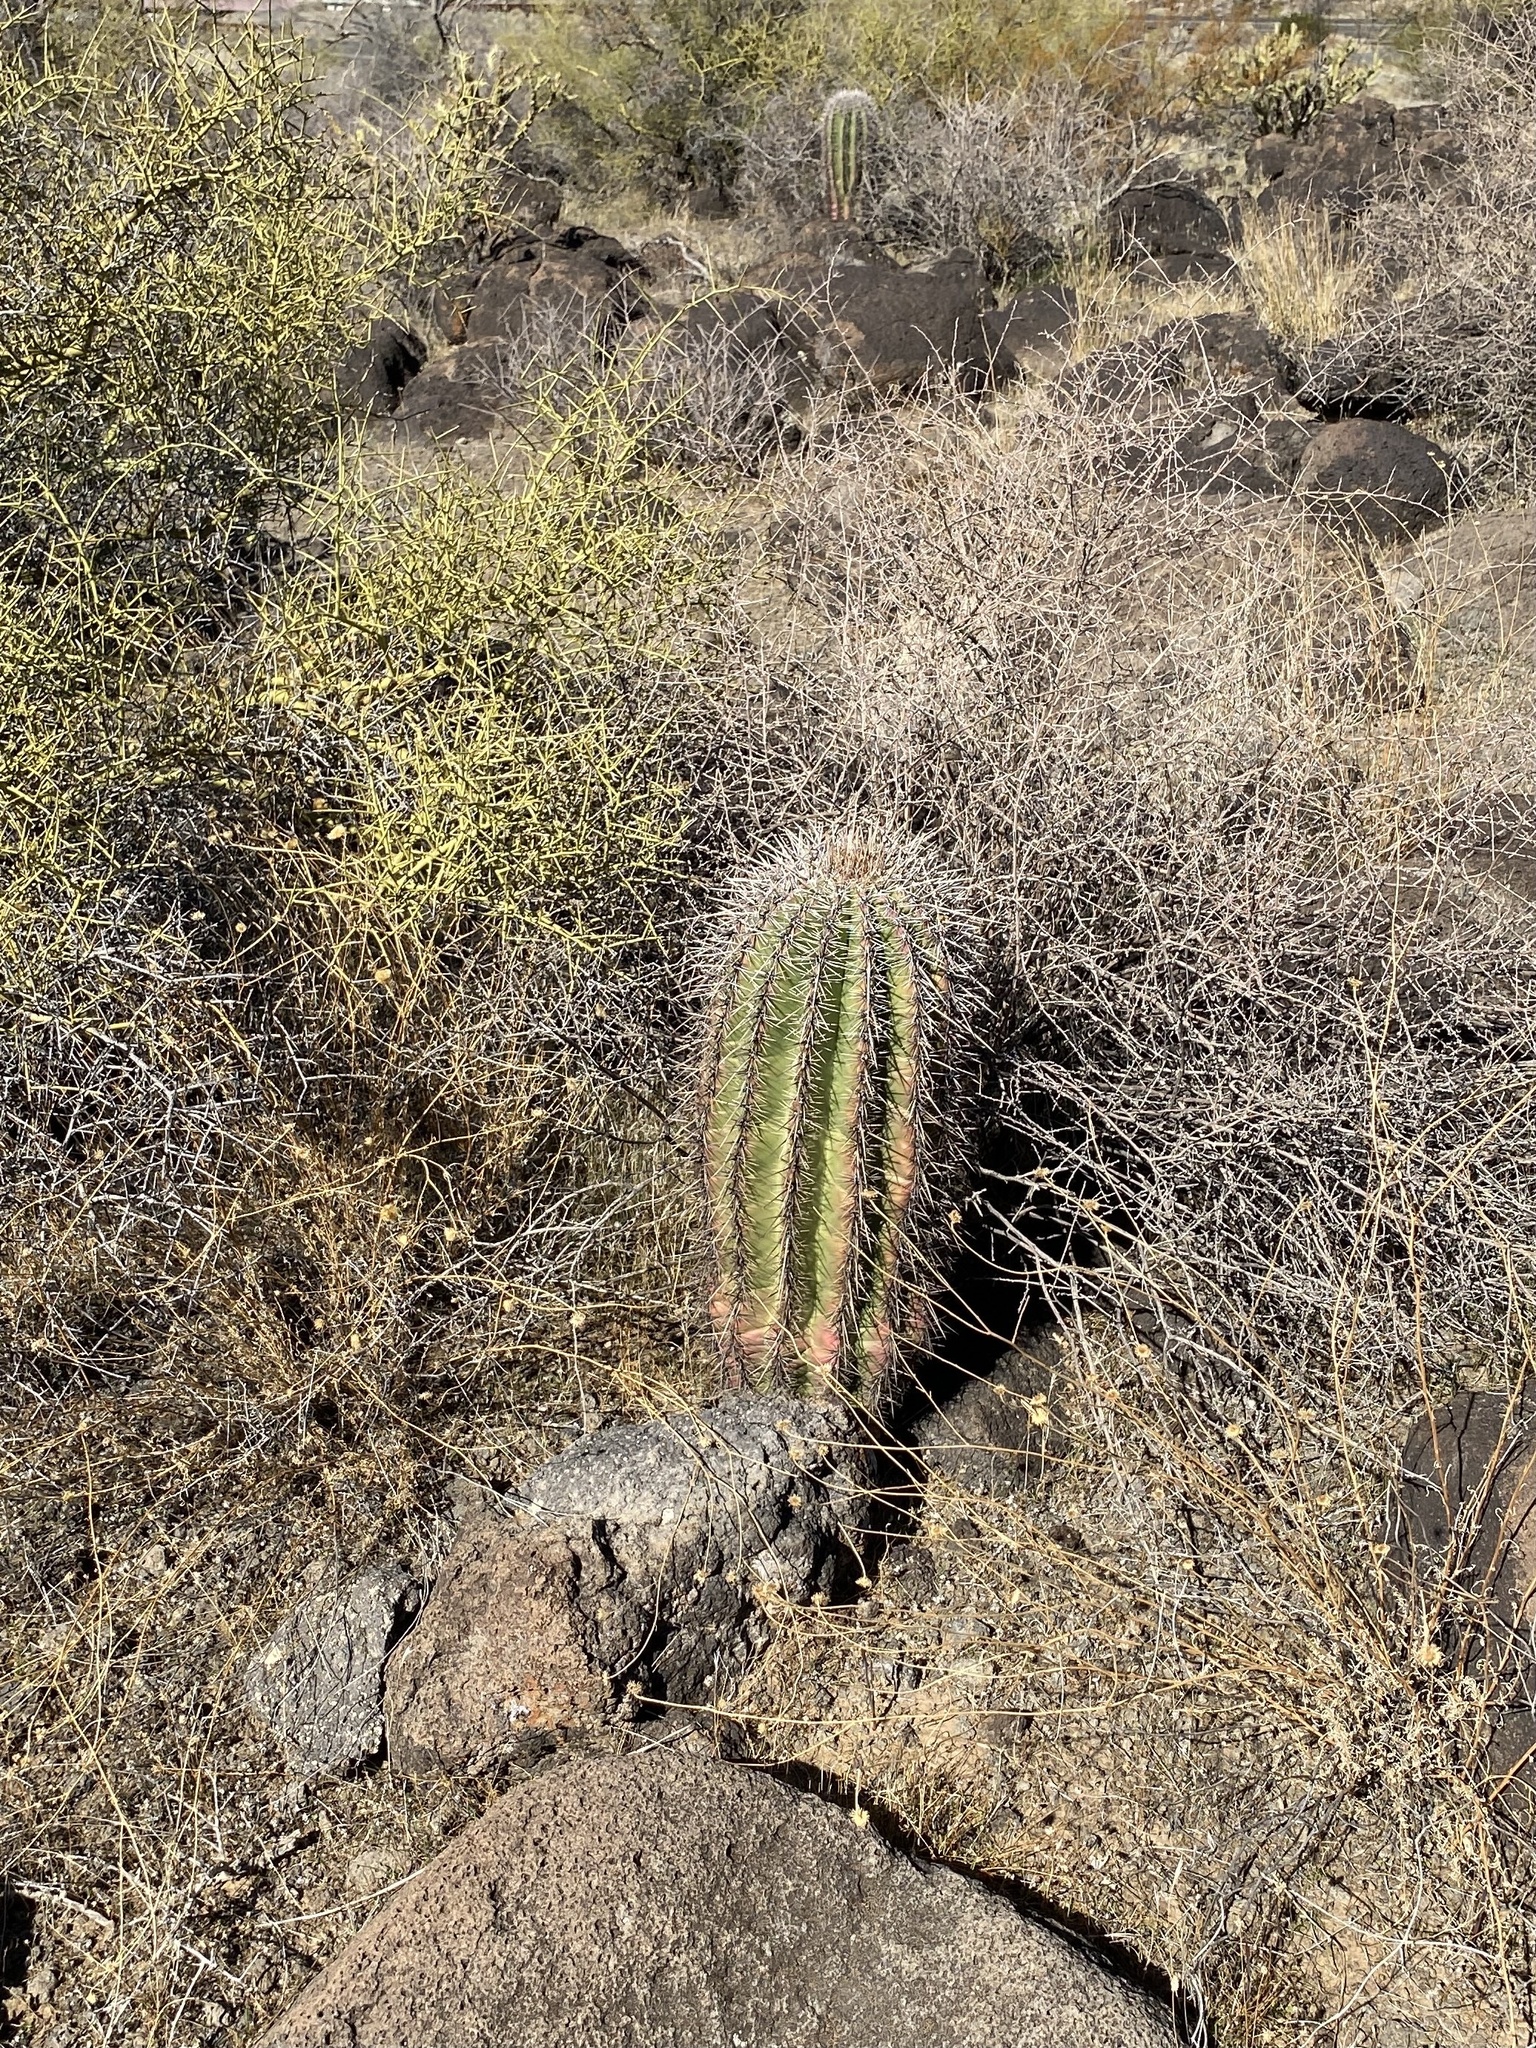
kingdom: Plantae
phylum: Tracheophyta
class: Magnoliopsida
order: Caryophyllales
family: Cactaceae
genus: Carnegiea
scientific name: Carnegiea gigantea
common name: Saguaro
